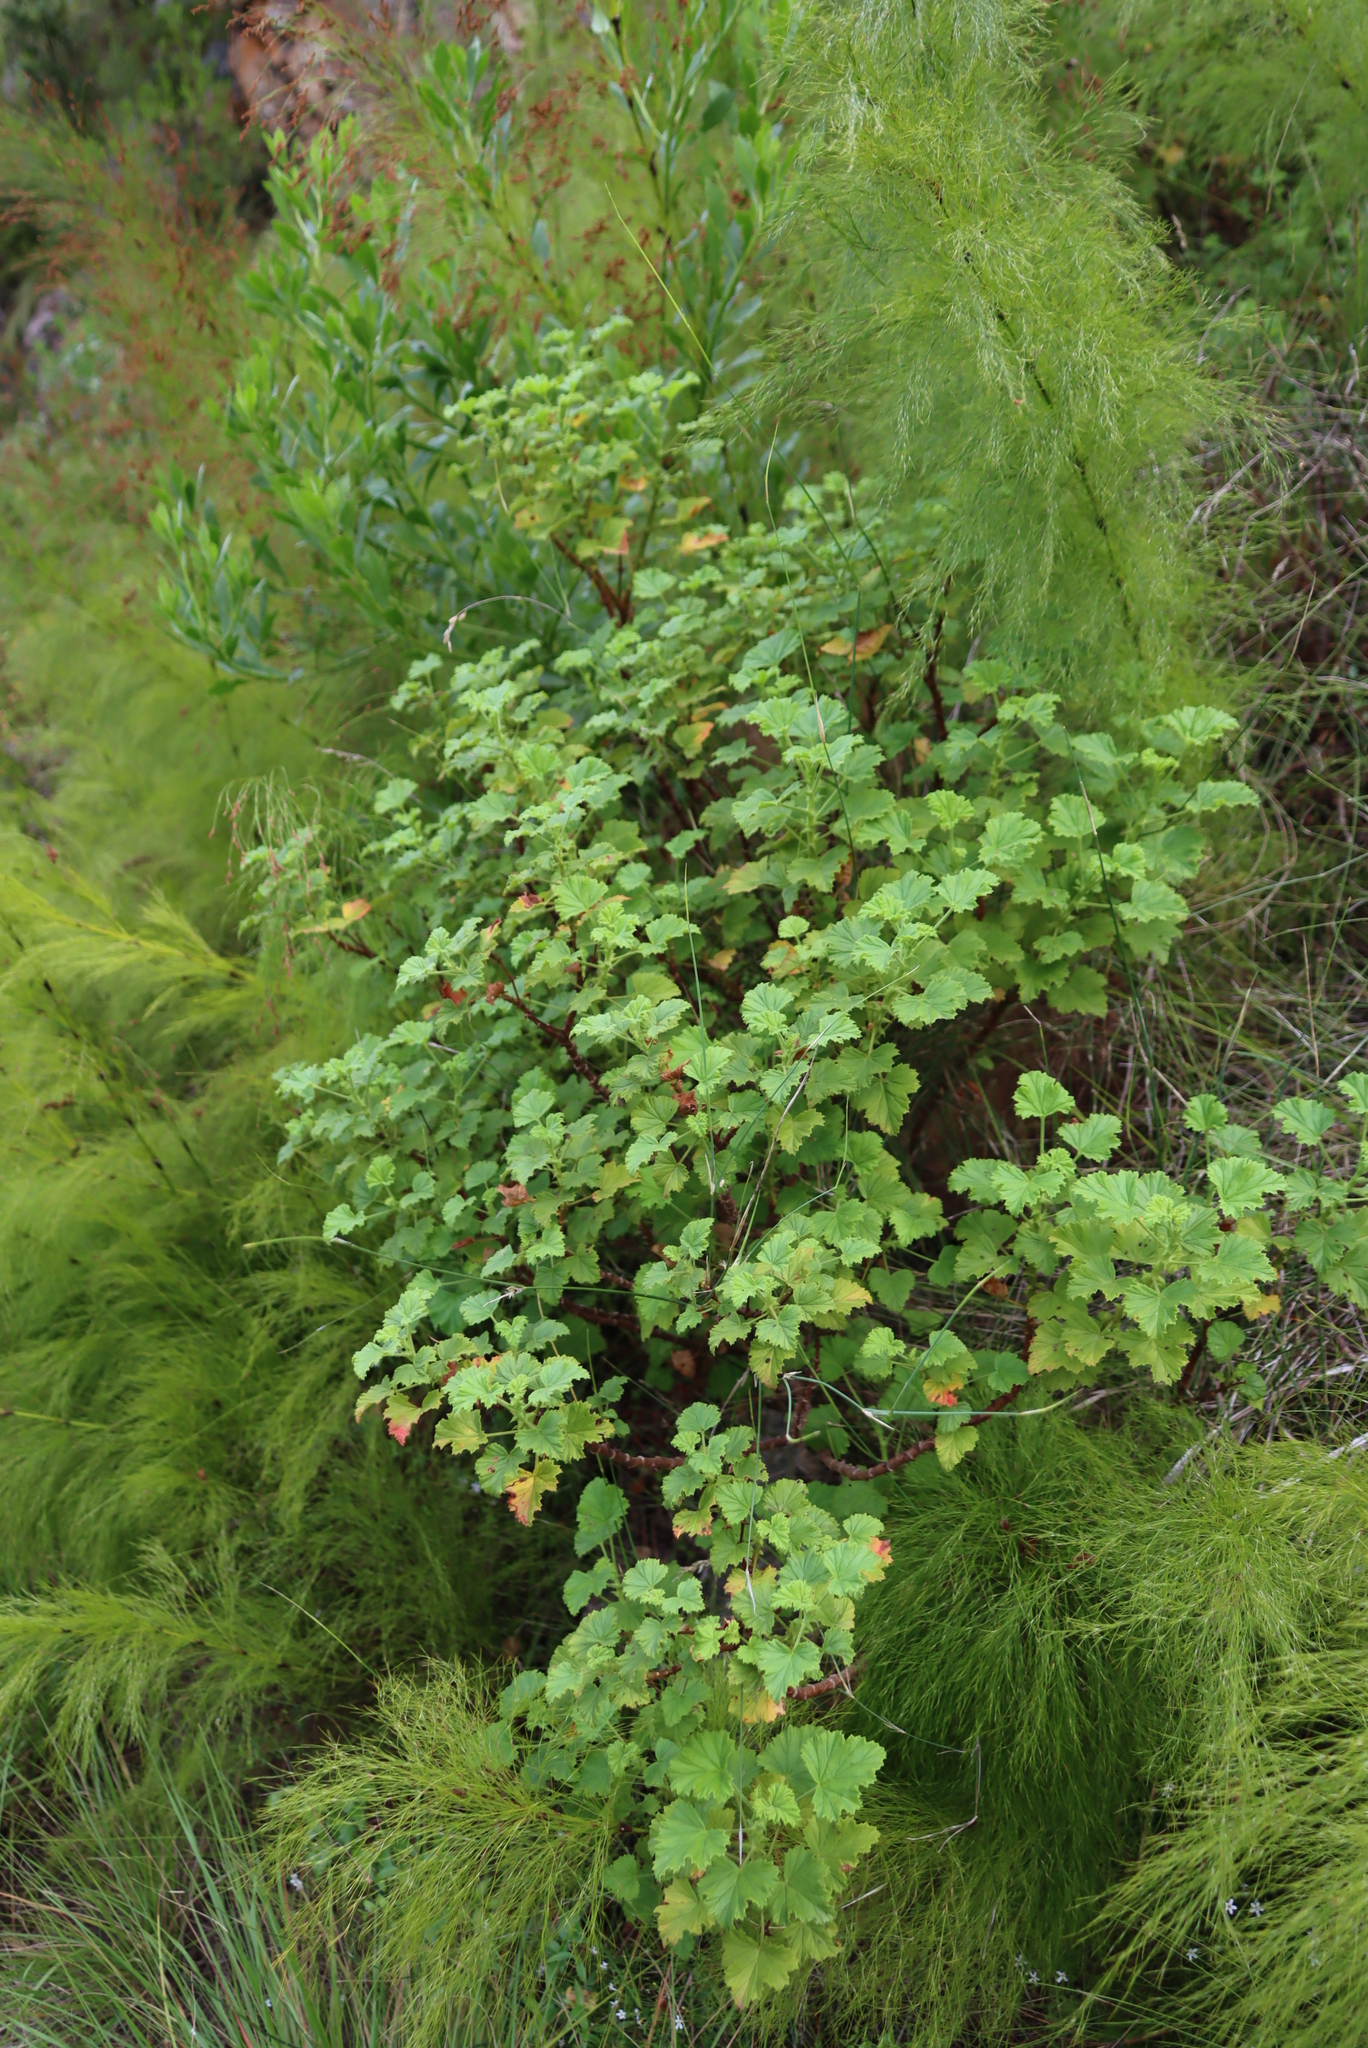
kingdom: Plantae
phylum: Tracheophyta
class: Magnoliopsida
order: Geraniales
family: Geraniaceae
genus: Pelargonium
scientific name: Pelargonium greytonense
